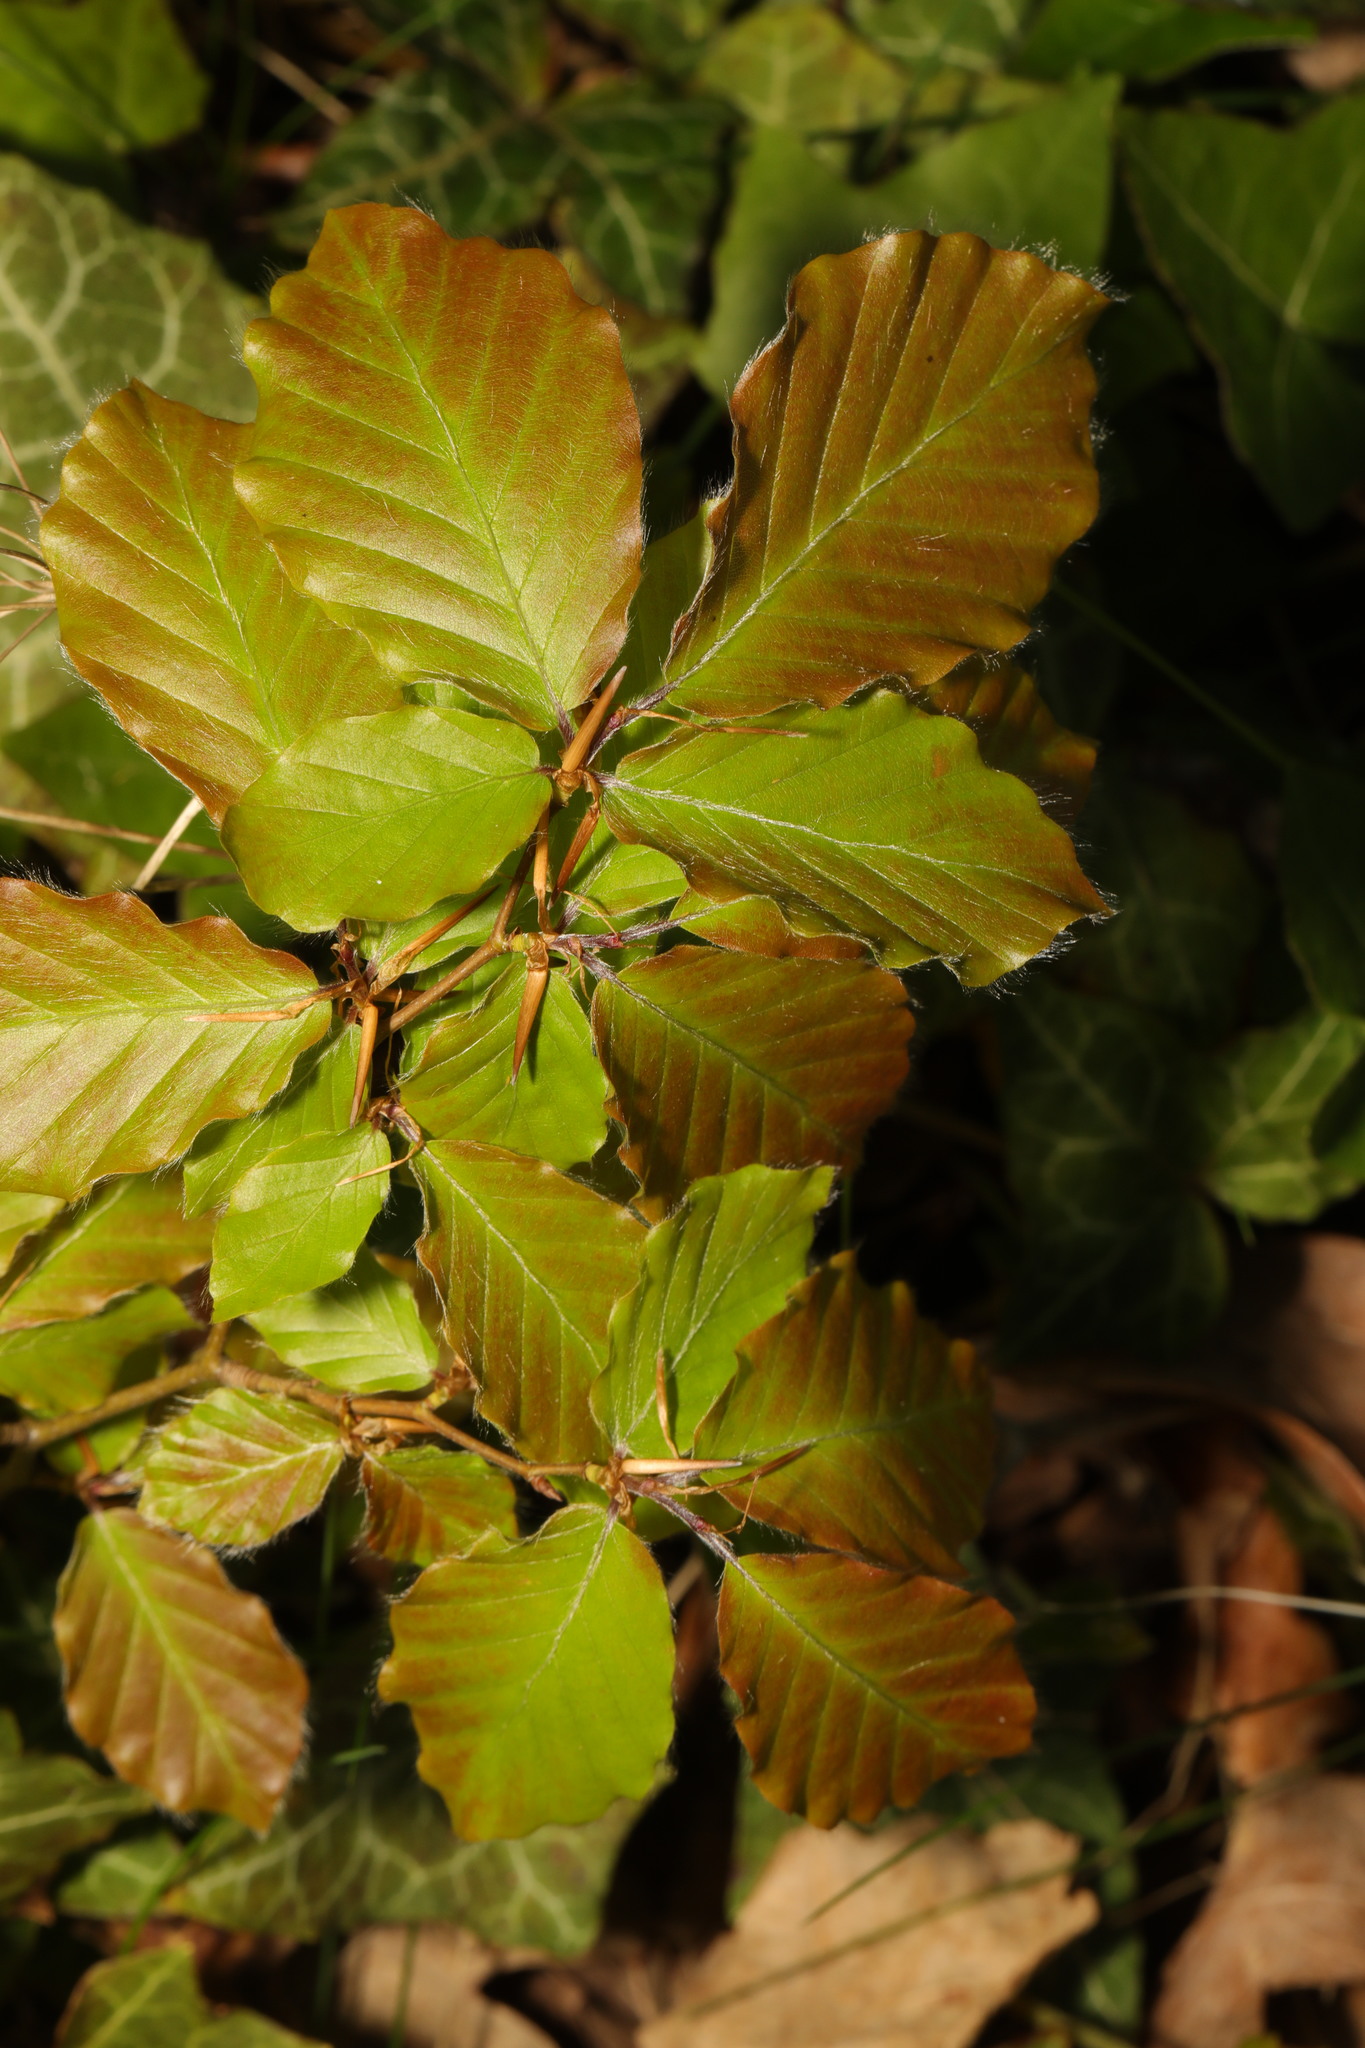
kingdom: Plantae
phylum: Tracheophyta
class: Magnoliopsida
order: Fagales
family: Fagaceae
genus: Fagus
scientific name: Fagus sylvatica
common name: Beech
